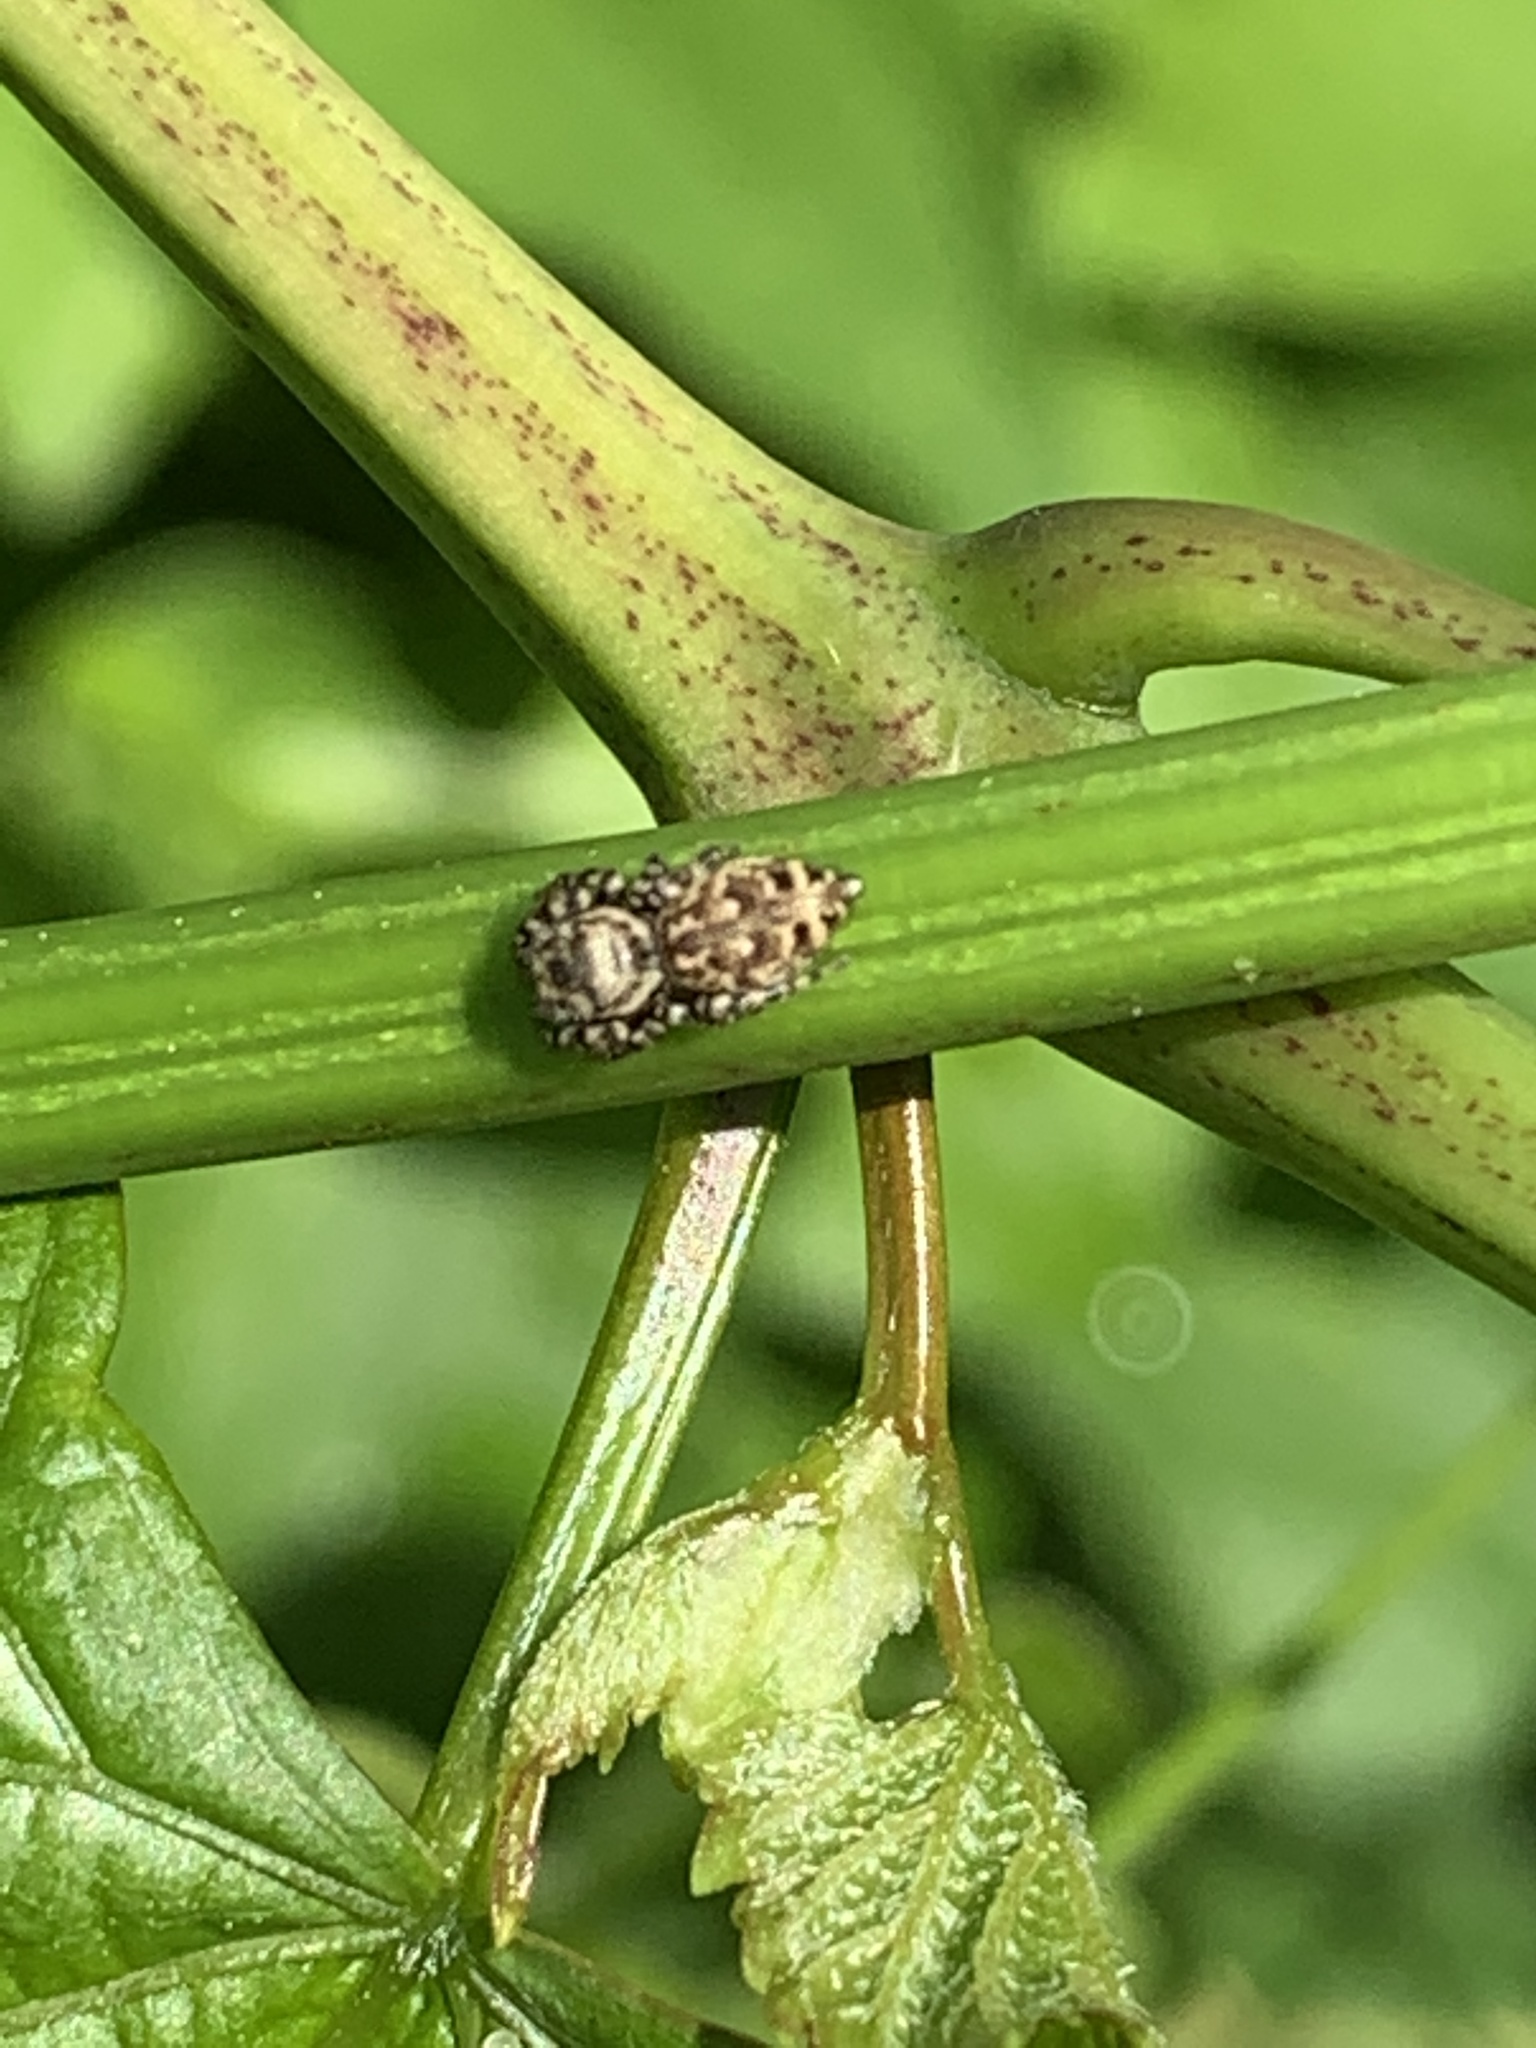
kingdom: Animalia
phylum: Arthropoda
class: Arachnida
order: Araneae
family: Salticidae
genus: Pelegrina
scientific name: Pelegrina galathea
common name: Jumping spiders
